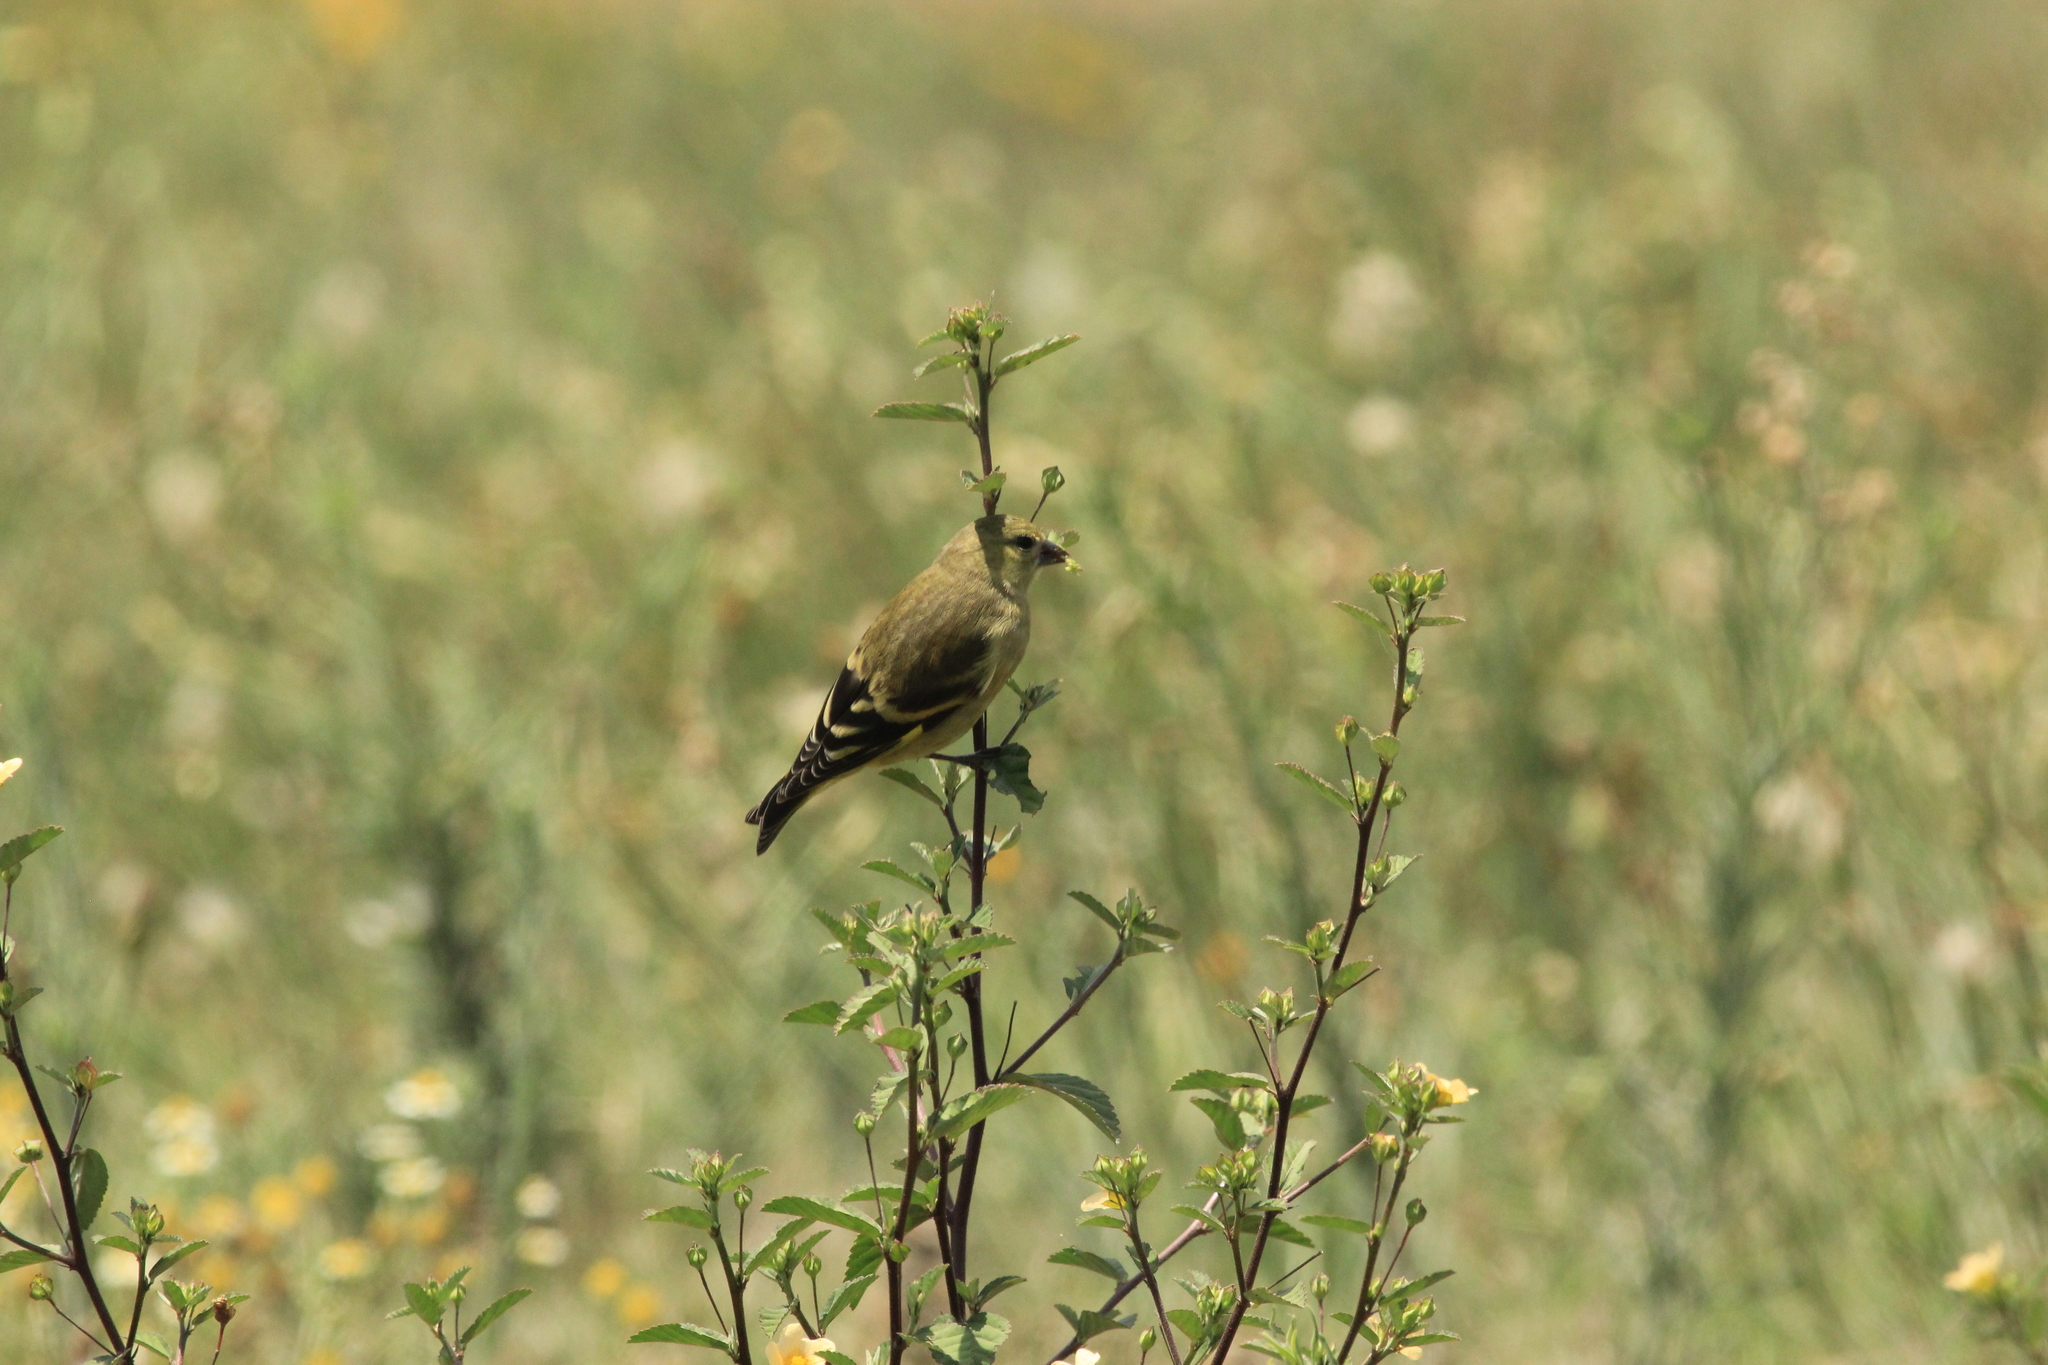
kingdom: Animalia
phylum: Chordata
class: Aves
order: Passeriformes
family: Fringillidae
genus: Spinus
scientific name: Spinus magellanicus
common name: Hooded siskin
